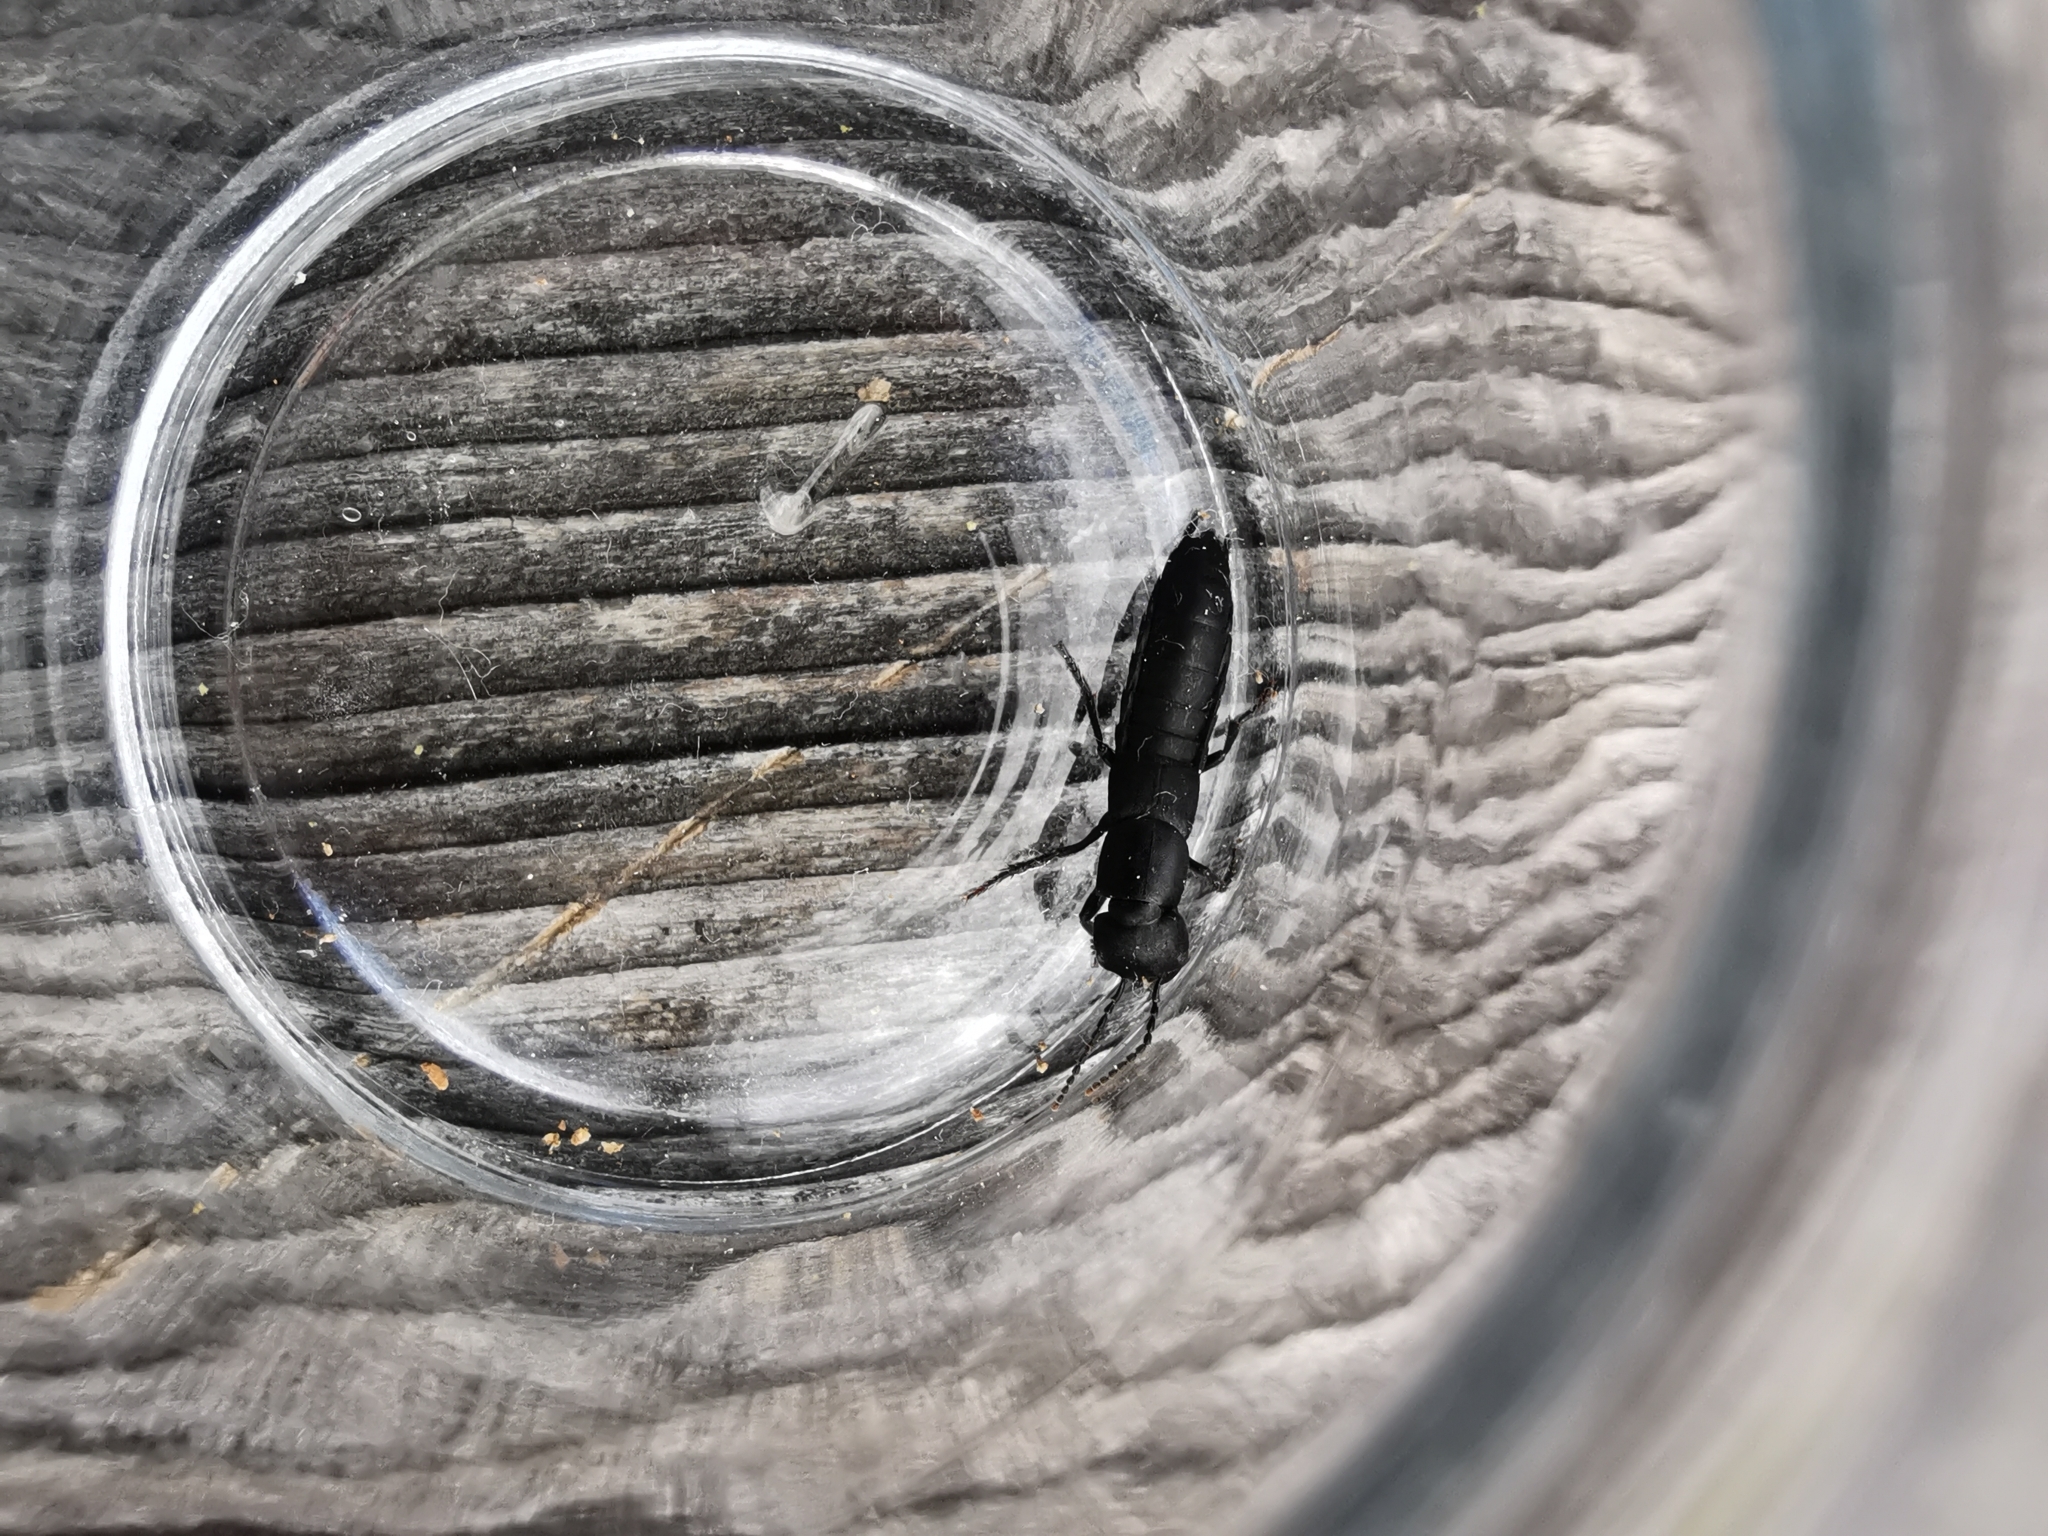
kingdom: Animalia
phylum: Arthropoda
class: Insecta
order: Coleoptera
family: Staphylinidae
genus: Ocypus
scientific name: Ocypus nitens
